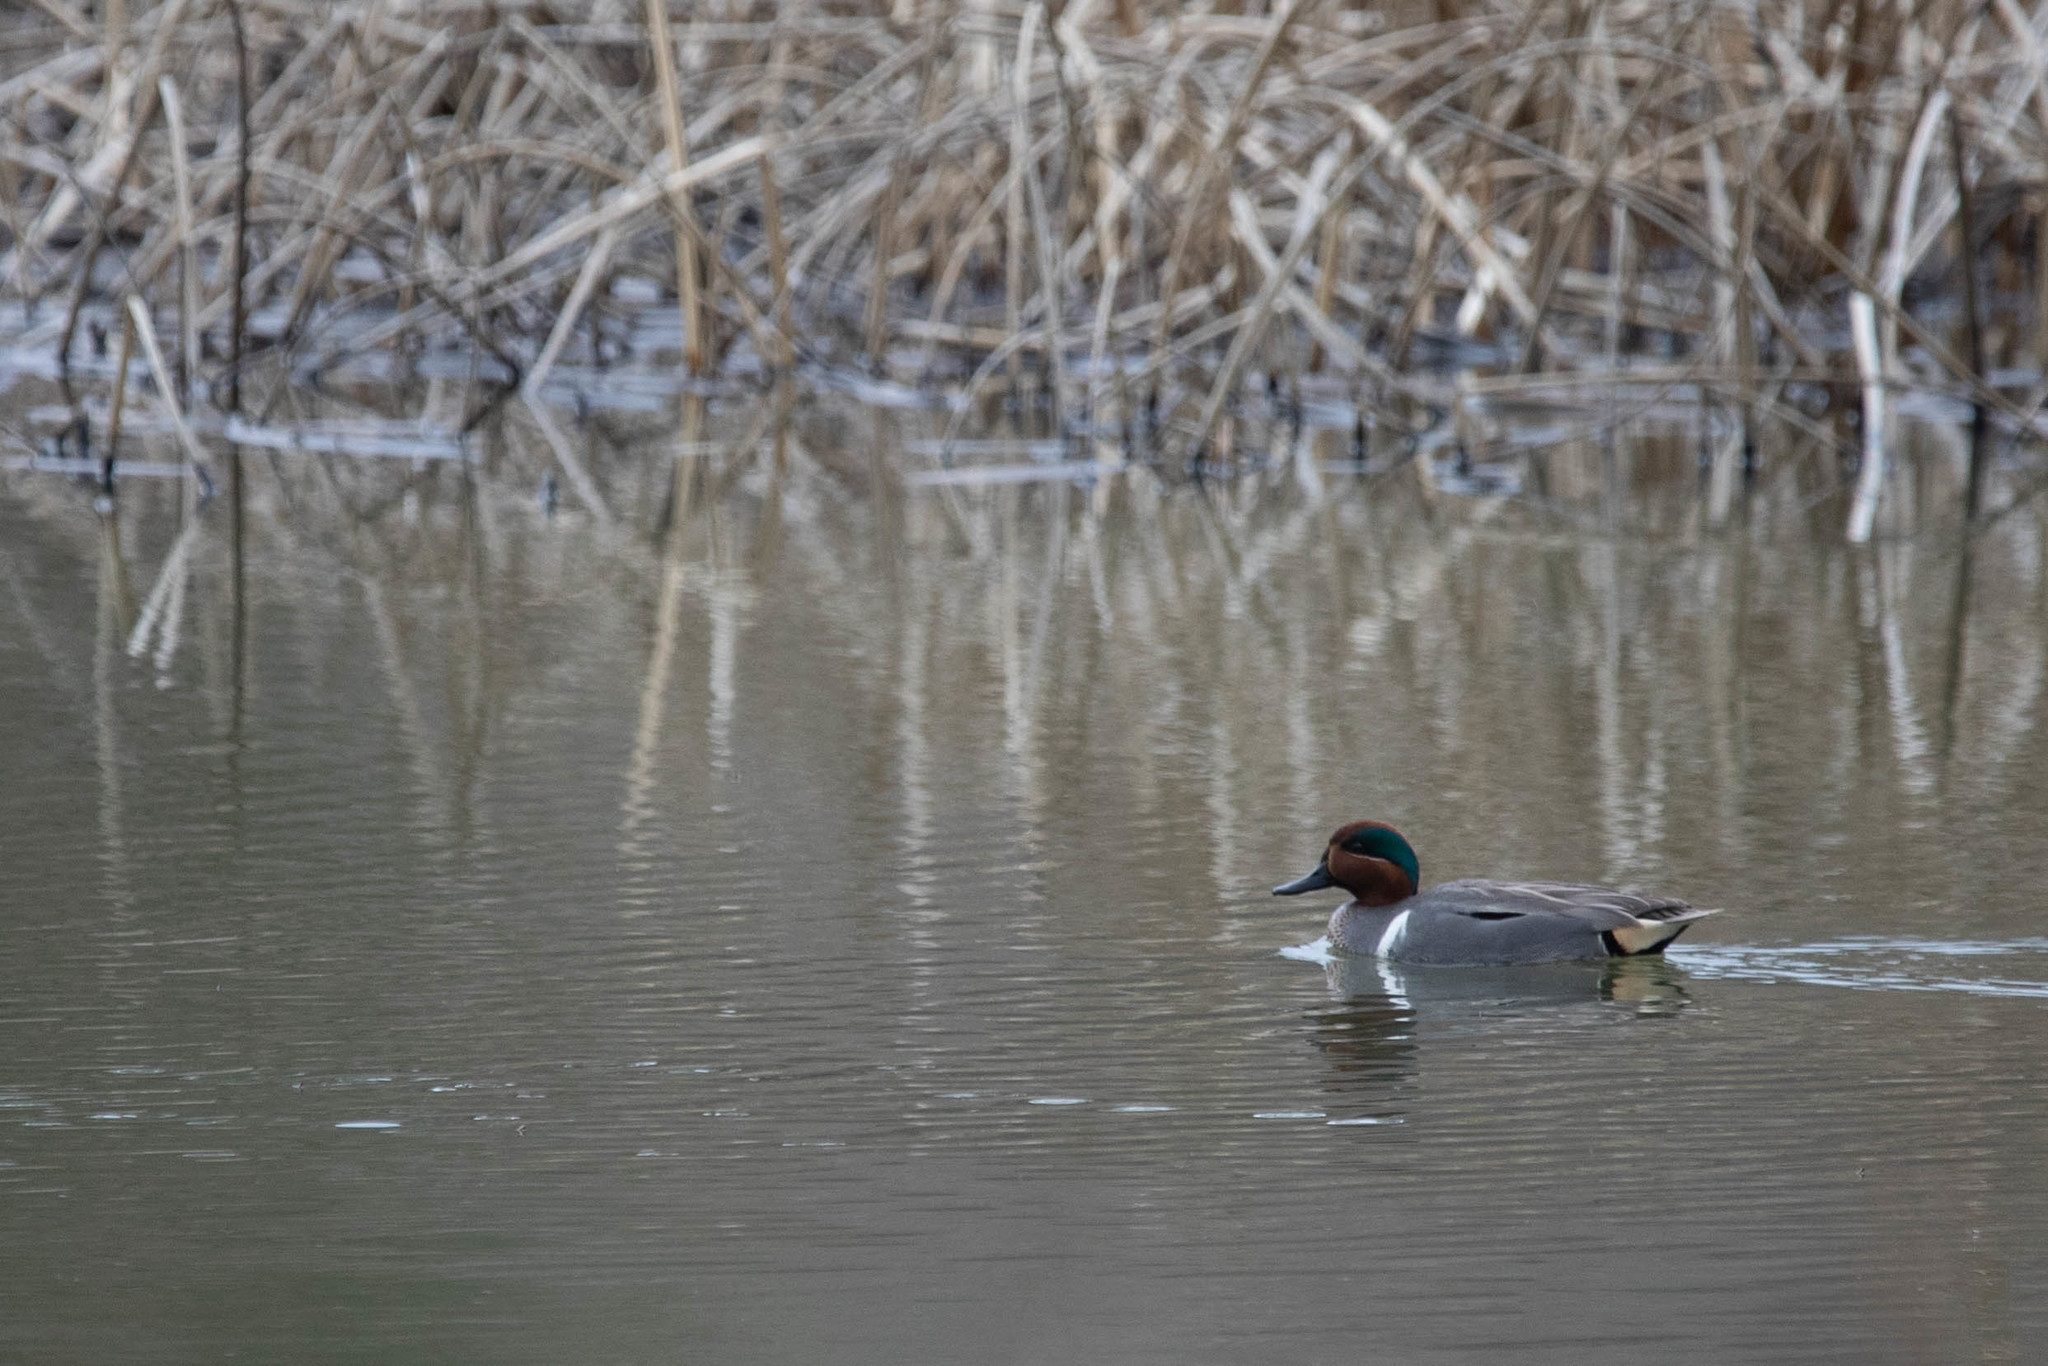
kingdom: Animalia
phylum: Chordata
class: Aves
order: Anseriformes
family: Anatidae
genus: Anas
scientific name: Anas crecca
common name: Eurasian teal
